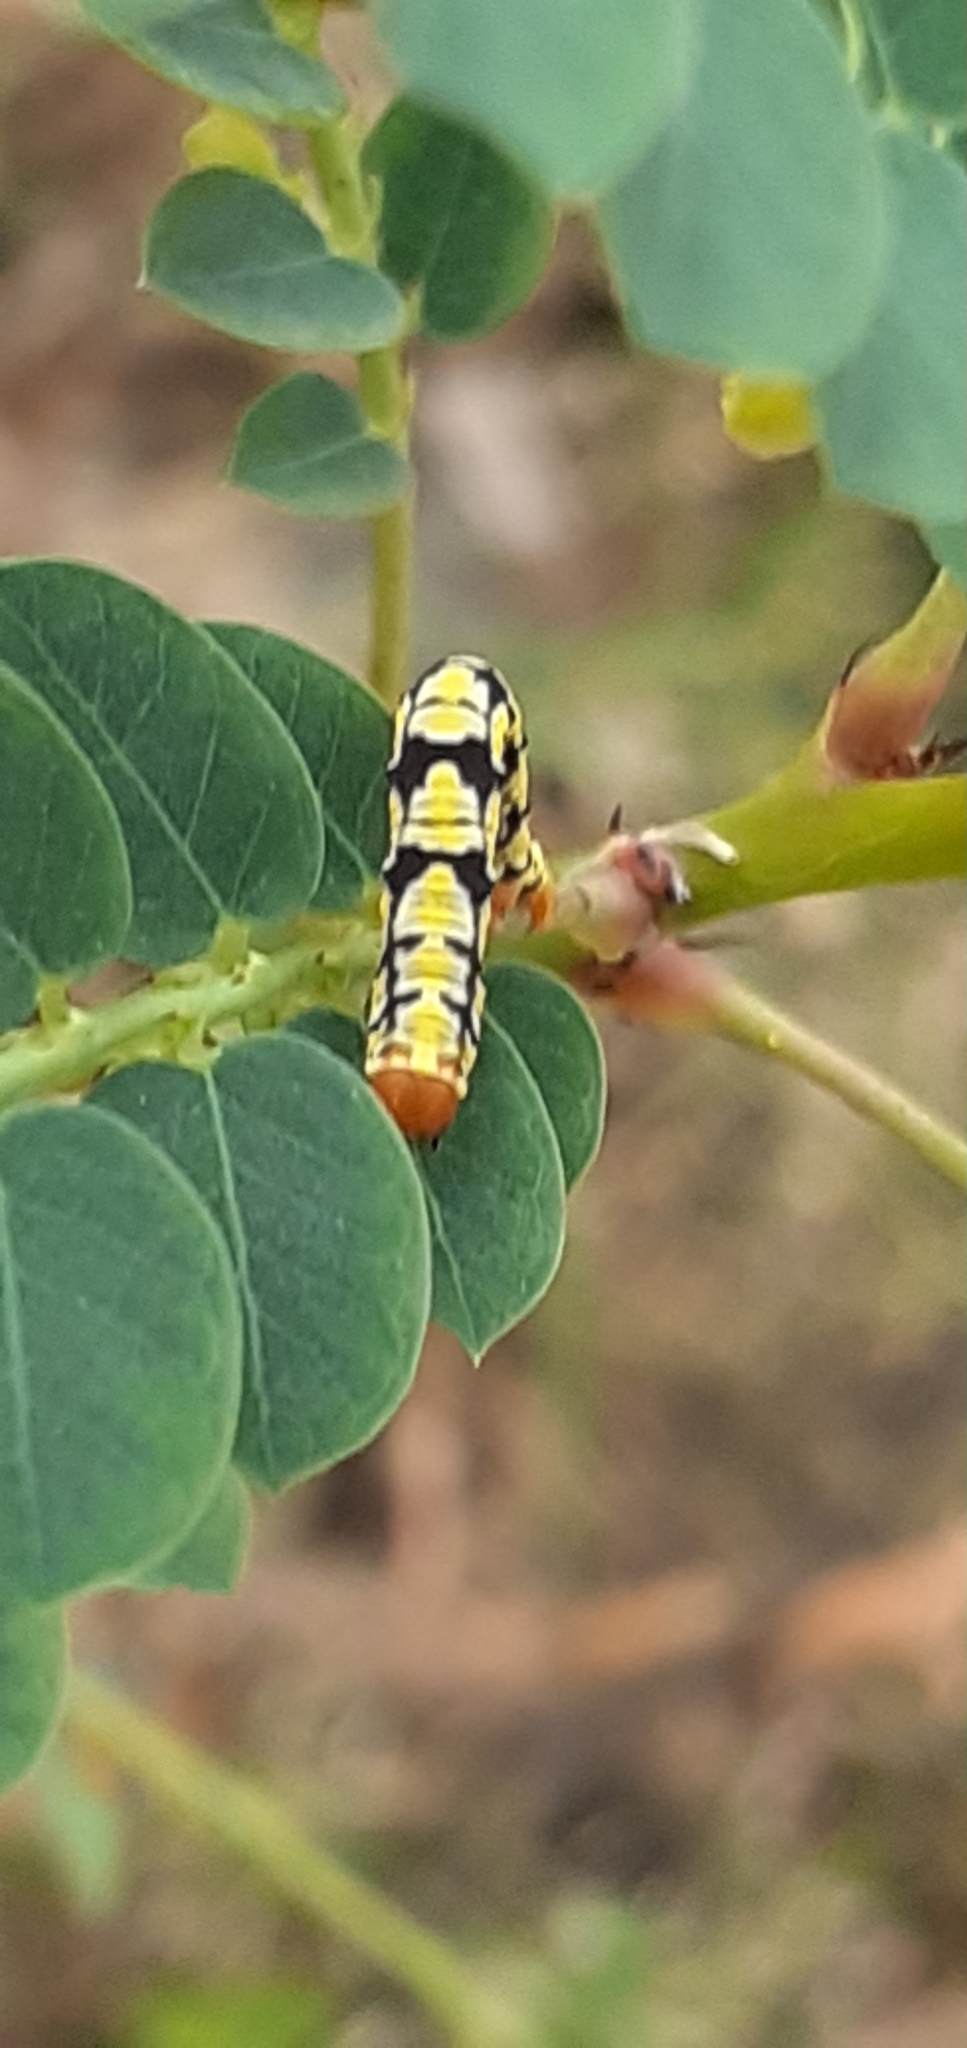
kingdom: Animalia
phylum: Arthropoda
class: Insecta
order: Lepidoptera
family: Geometridae
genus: Melanchroia
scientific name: Melanchroia chephise
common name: White-tipped black
